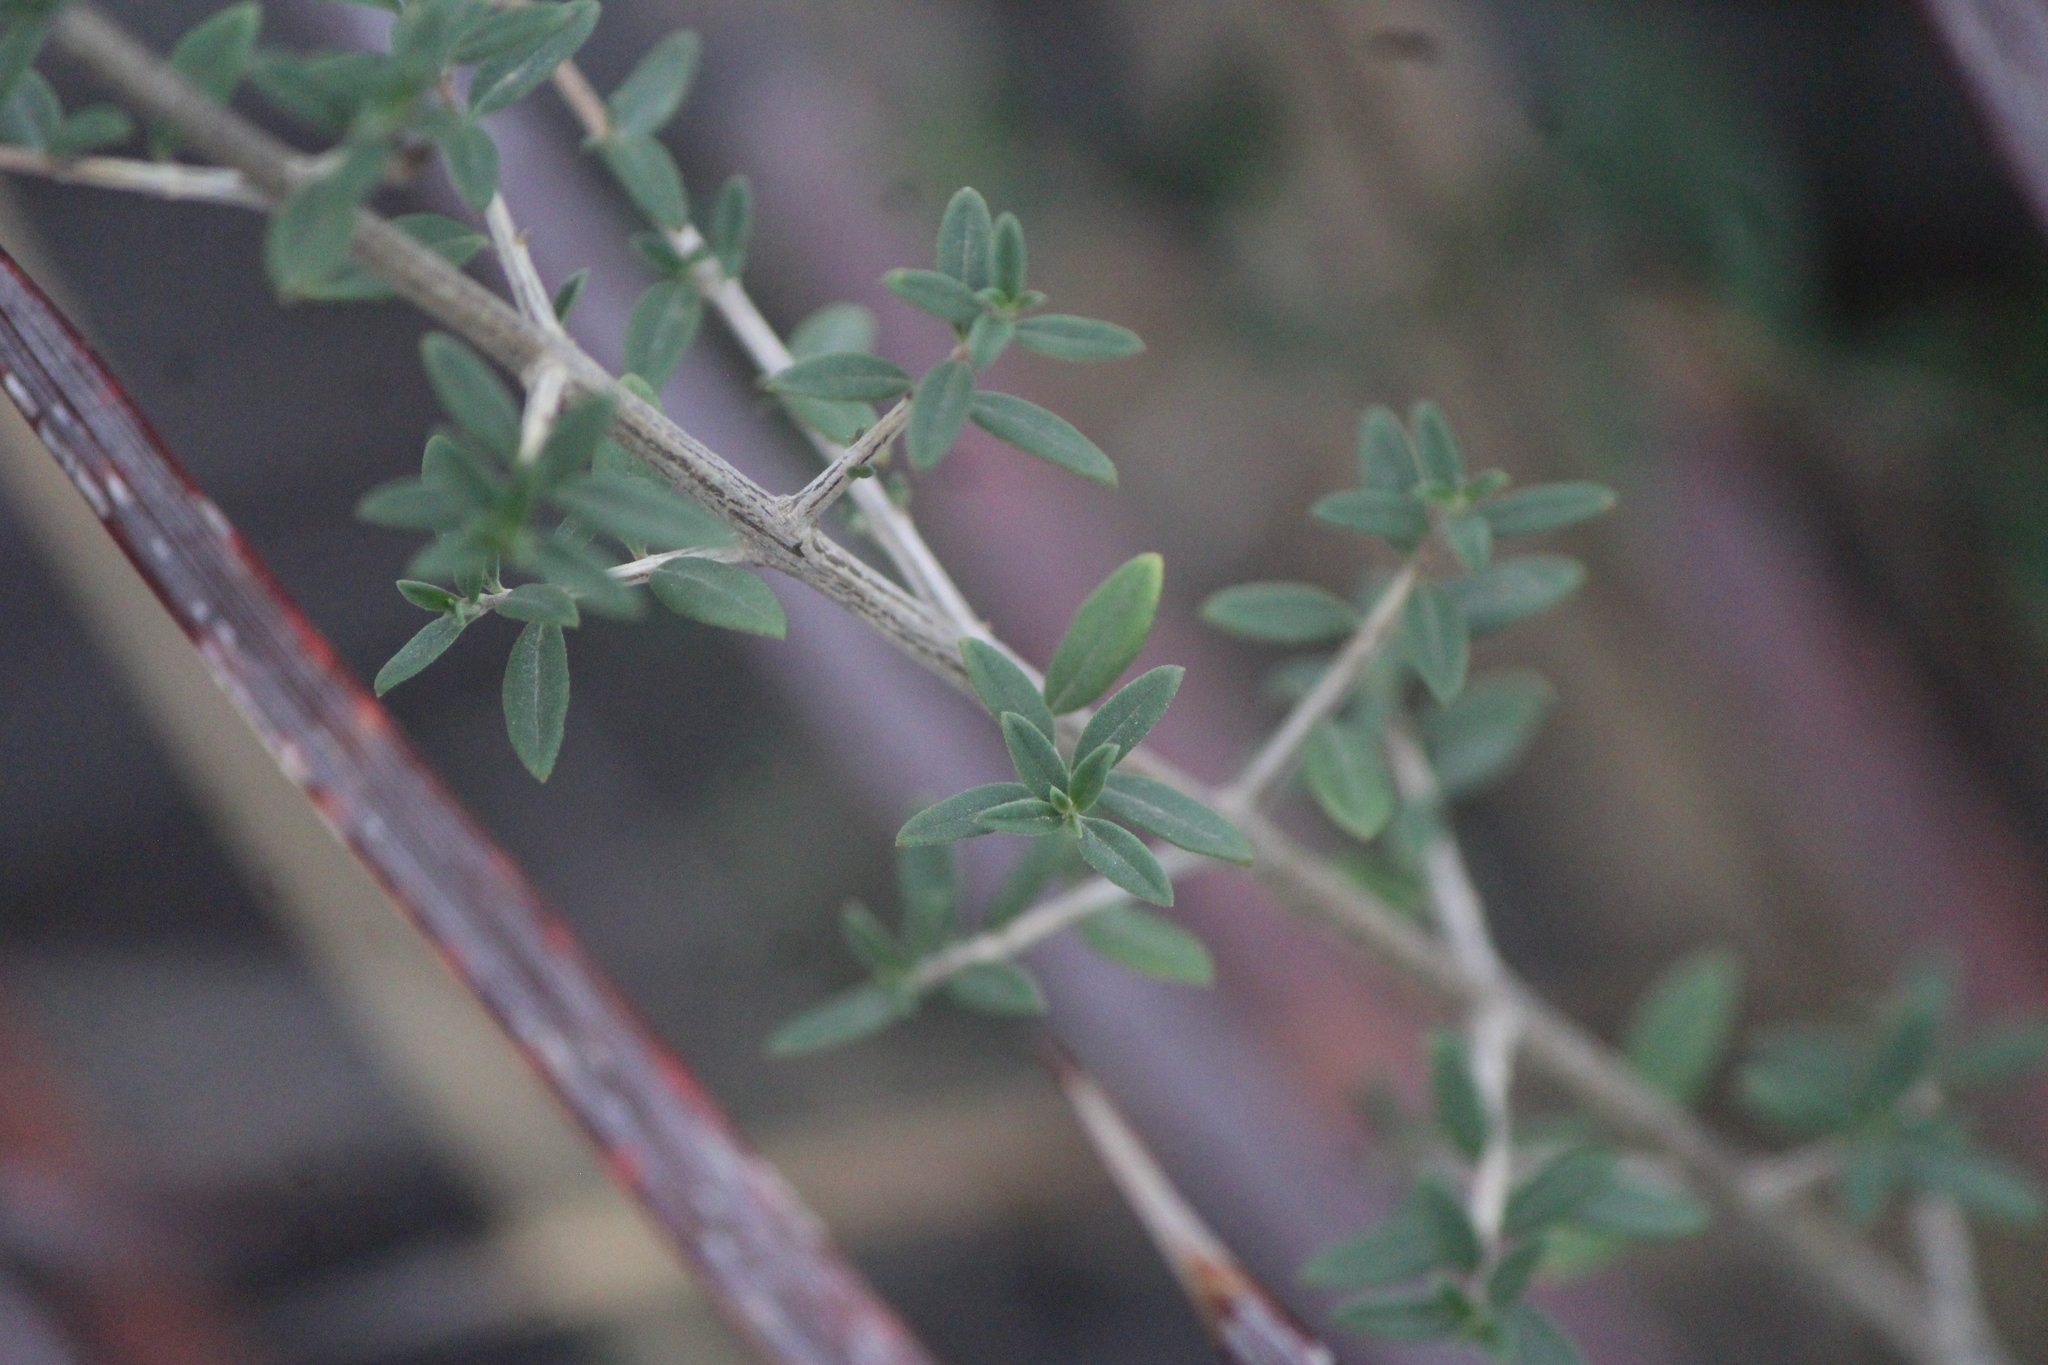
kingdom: Plantae
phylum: Tracheophyta
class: Magnoliopsida
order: Lamiales
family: Verbenaceae
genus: Aloysia
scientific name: Aloysia gratissima
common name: Common bee-brush
